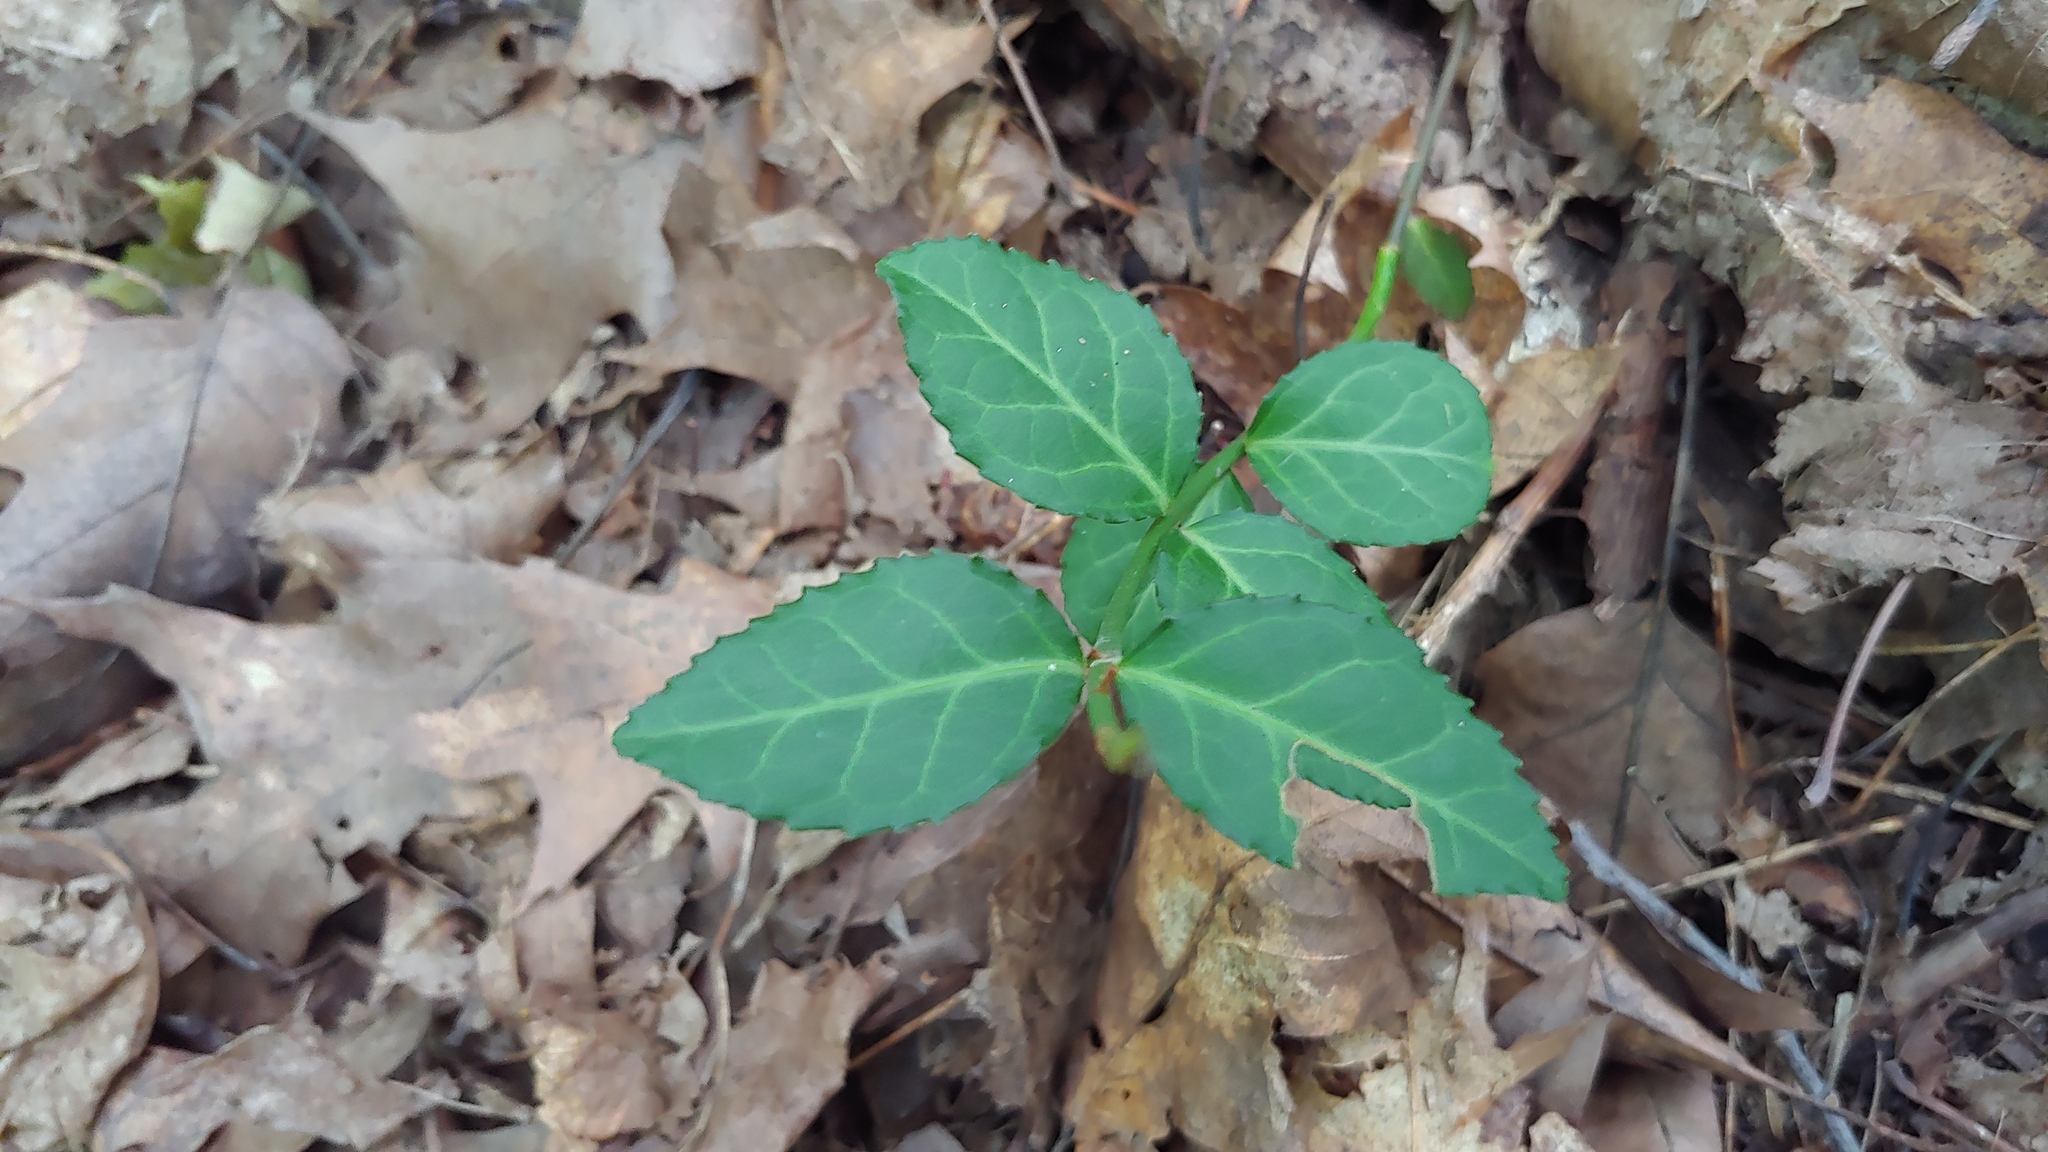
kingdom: Plantae
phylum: Tracheophyta
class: Magnoliopsida
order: Celastrales
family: Celastraceae
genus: Euonymus
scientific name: Euonymus fortunei
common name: Climbing euonymus
